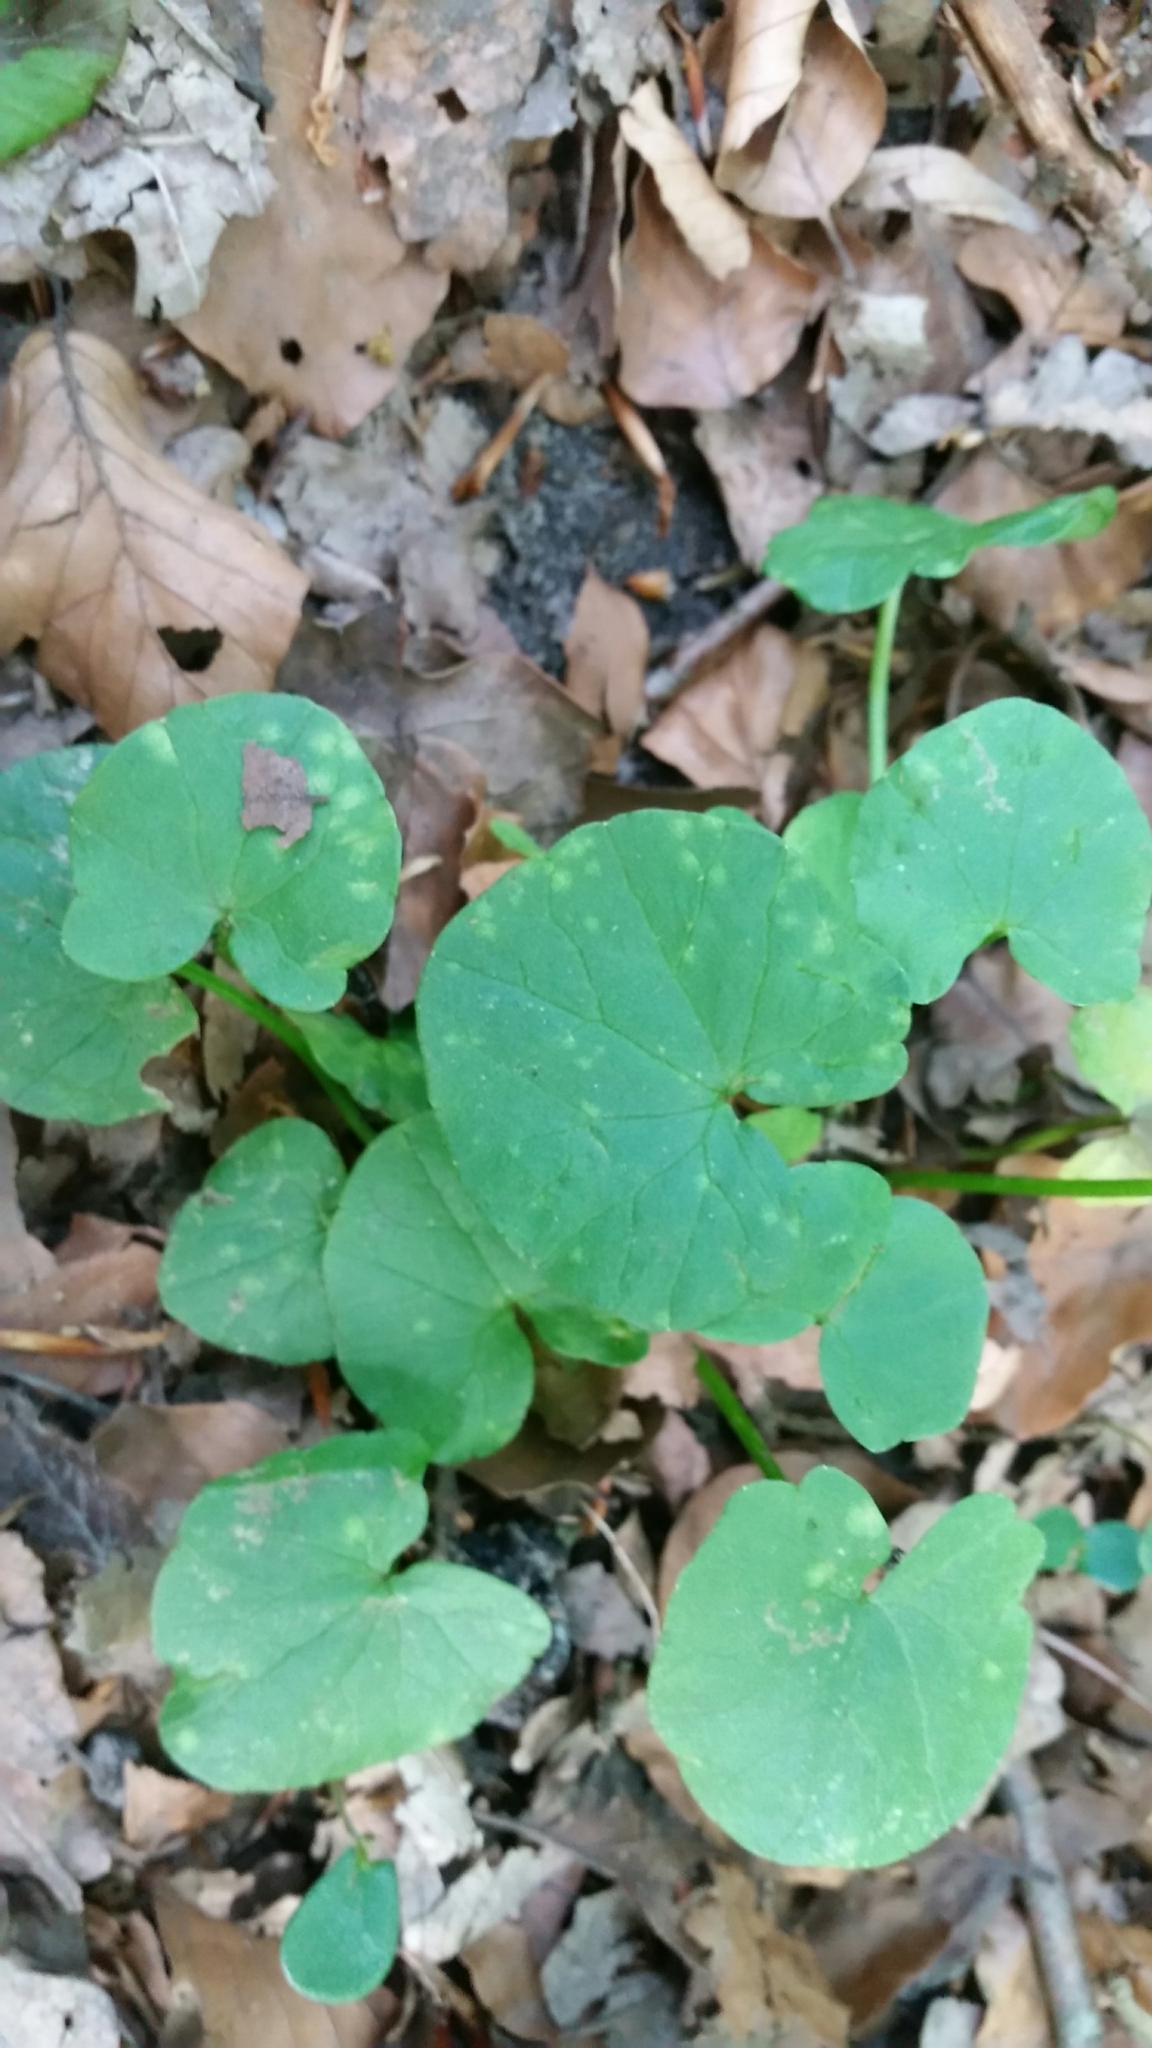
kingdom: Plantae
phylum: Tracheophyta
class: Magnoliopsida
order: Ranunculales
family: Ranunculaceae
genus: Ficaria
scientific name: Ficaria verna
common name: Lesser celandine
